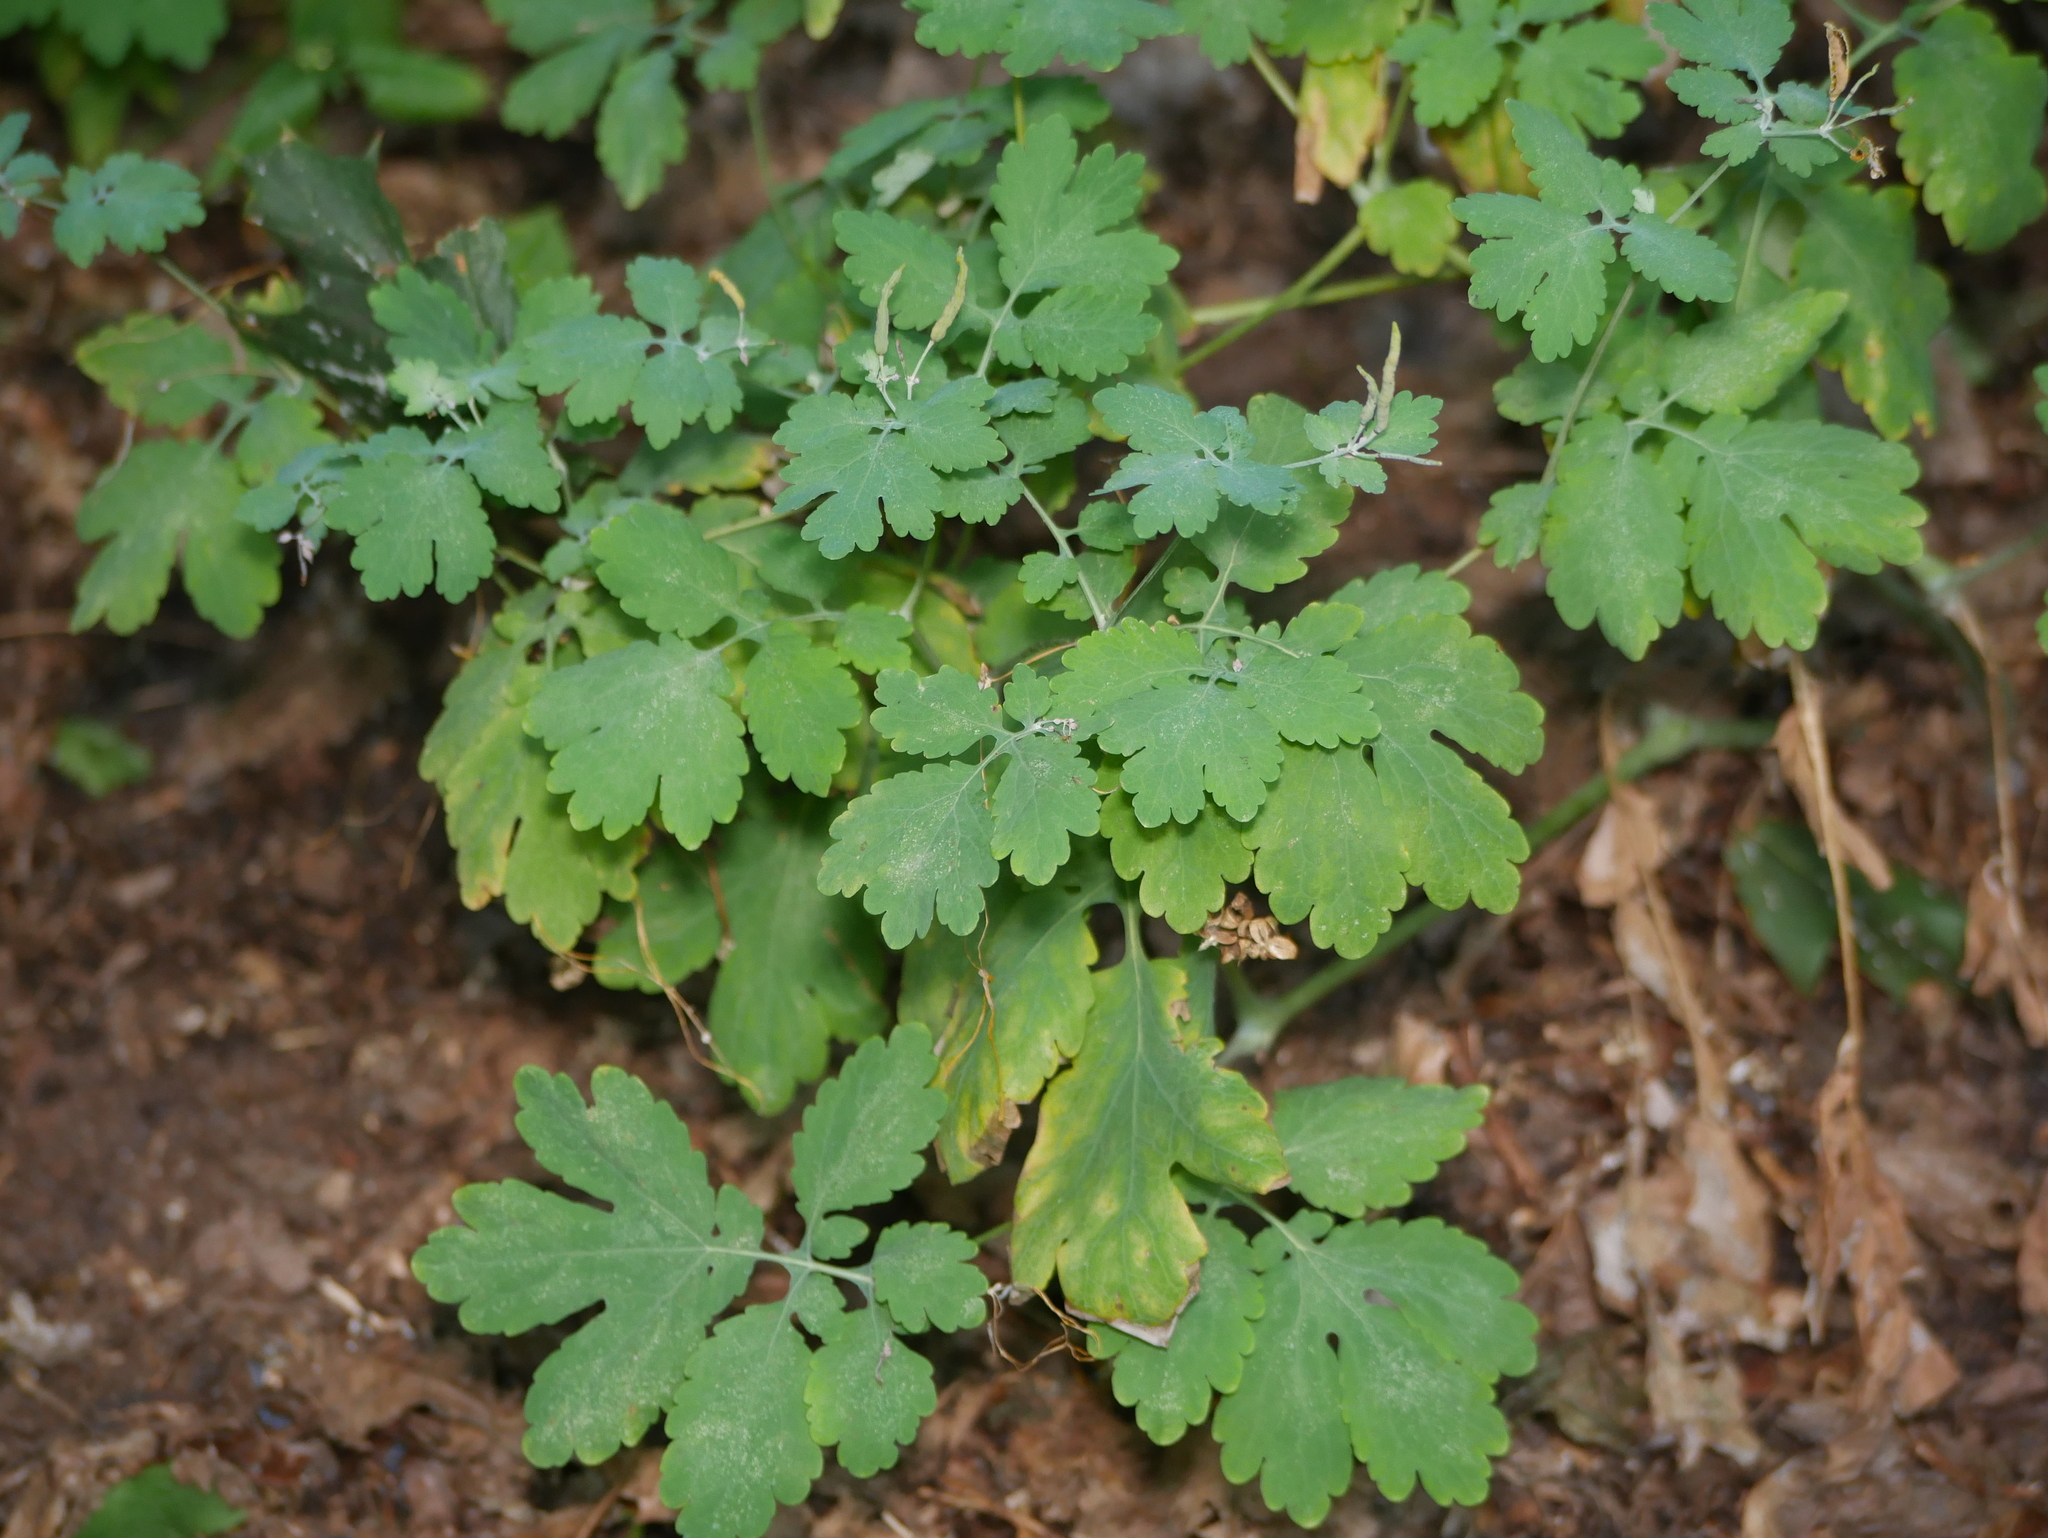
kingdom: Plantae
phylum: Tracheophyta
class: Magnoliopsida
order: Ranunculales
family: Papaveraceae
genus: Chelidonium
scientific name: Chelidonium majus
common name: Greater celandine
